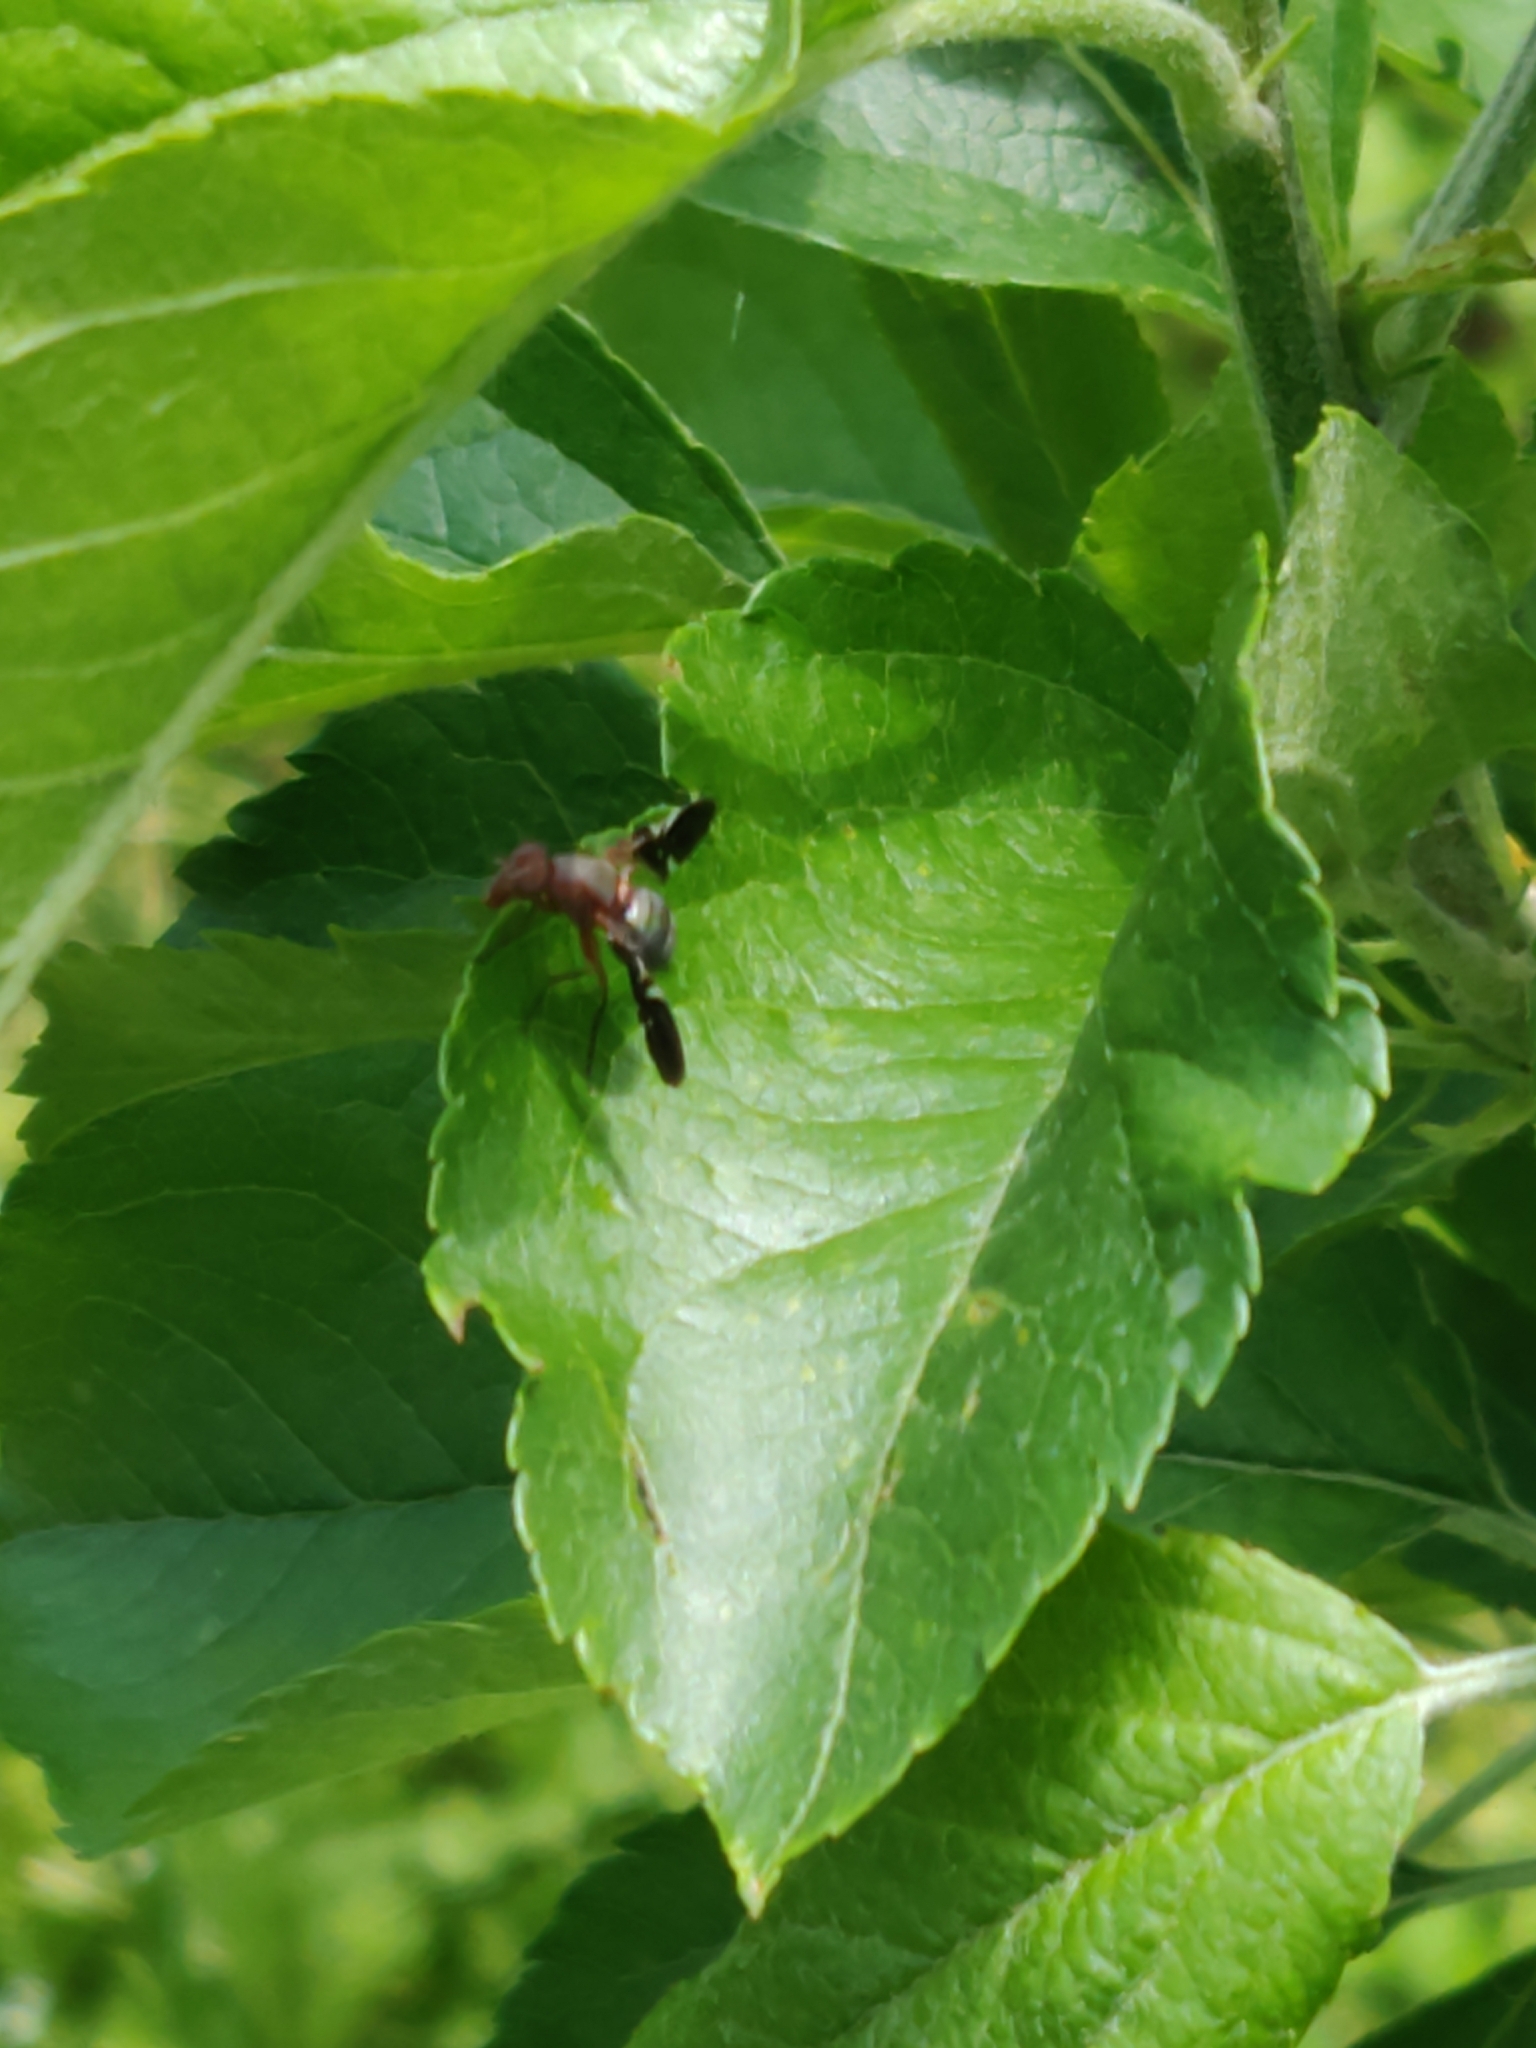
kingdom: Animalia
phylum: Arthropoda
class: Insecta
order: Diptera
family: Ulidiidae
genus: Delphinia
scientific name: Delphinia picta
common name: Common picture-winged fly
